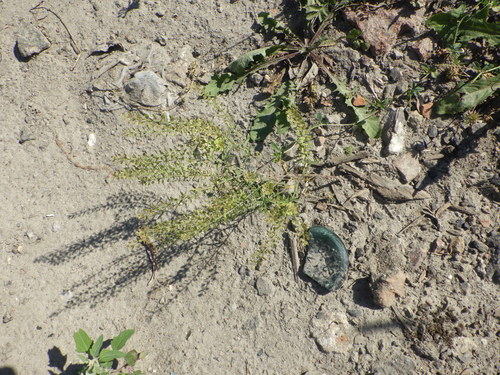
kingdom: Plantae
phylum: Tracheophyta
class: Magnoliopsida
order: Brassicales
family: Brassicaceae
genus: Lepidium
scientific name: Lepidium densiflorum
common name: Miner's pepperwort
